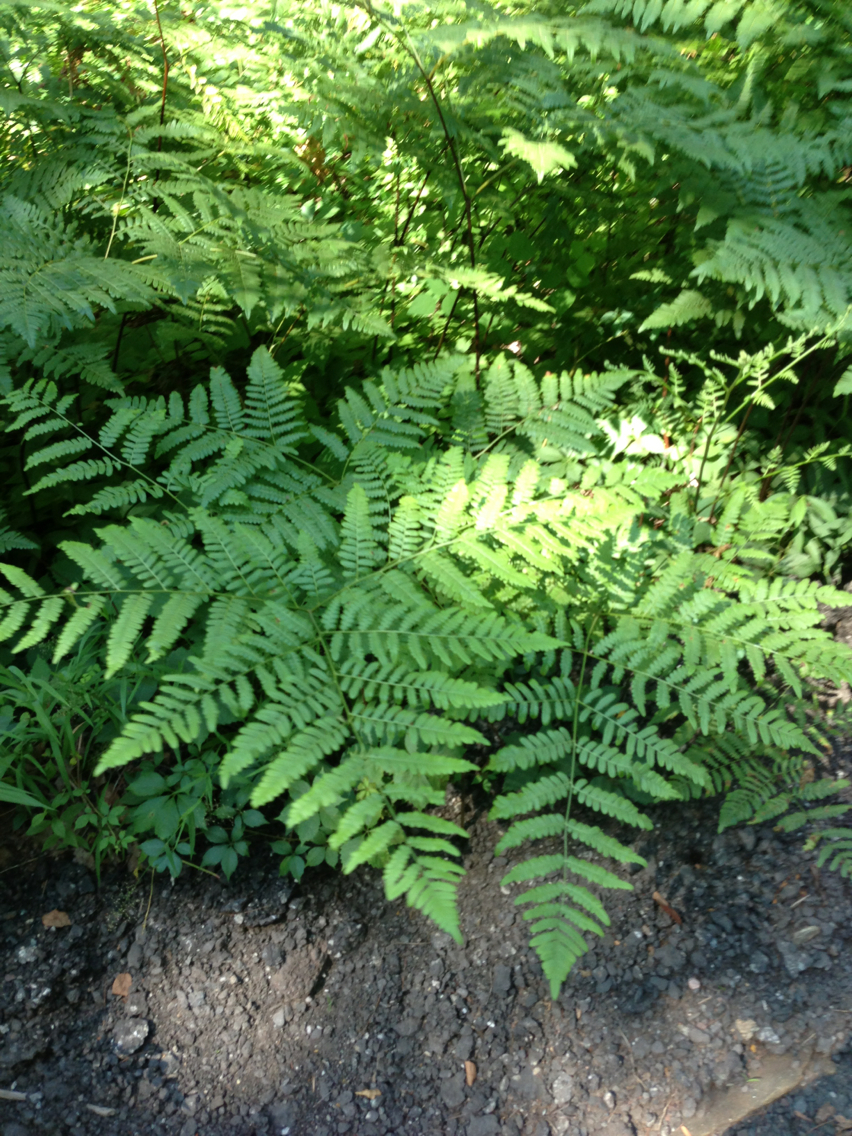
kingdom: Plantae
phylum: Tracheophyta
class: Polypodiopsida
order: Polypodiales
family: Dennstaedtiaceae
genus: Pteridium
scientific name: Pteridium aquilinum
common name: Bracken
